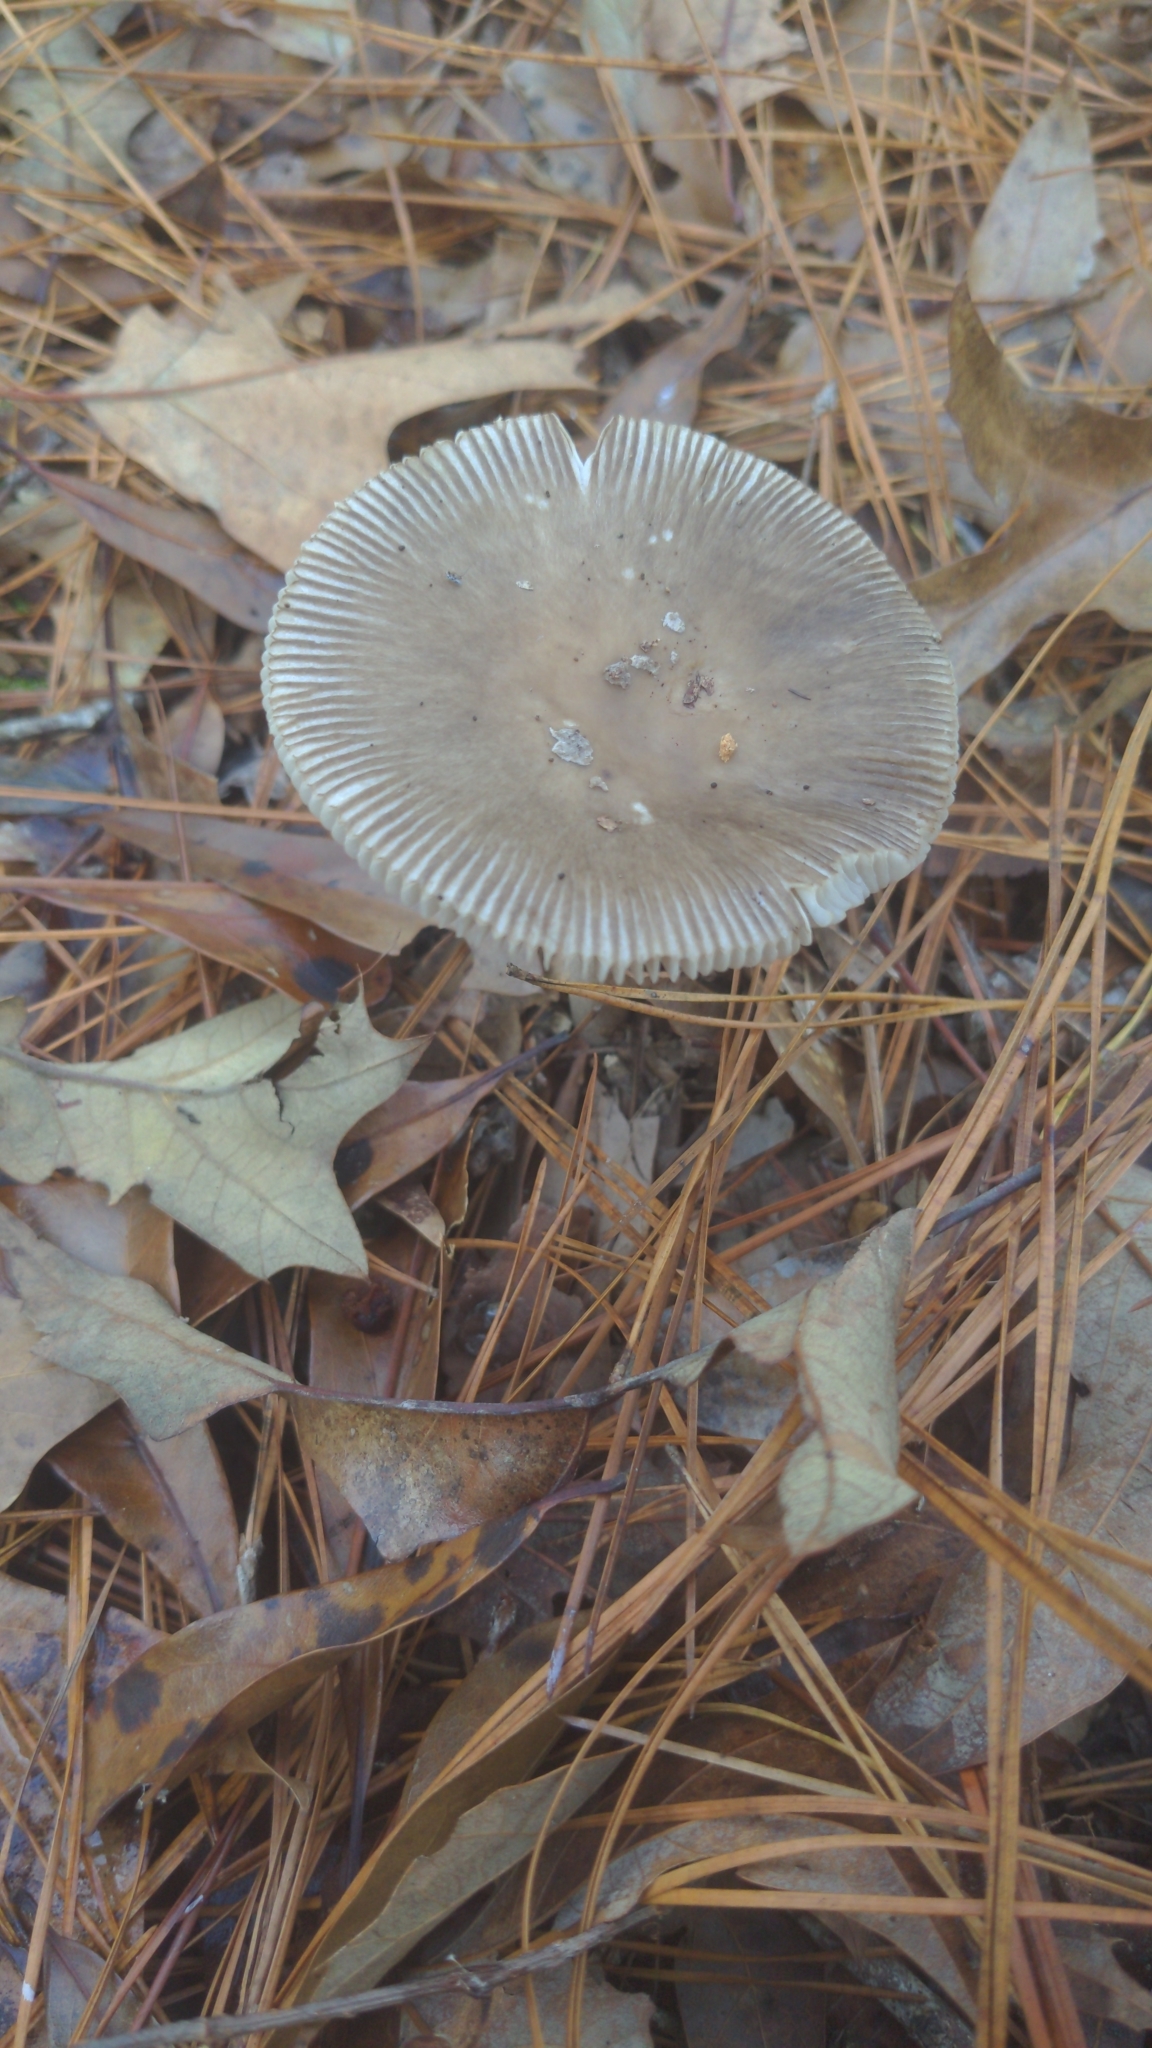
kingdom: Fungi
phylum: Basidiomycota
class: Agaricomycetes
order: Agaricales
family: Amanitaceae
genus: Amanita
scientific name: Amanita vaginata
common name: Grisette
